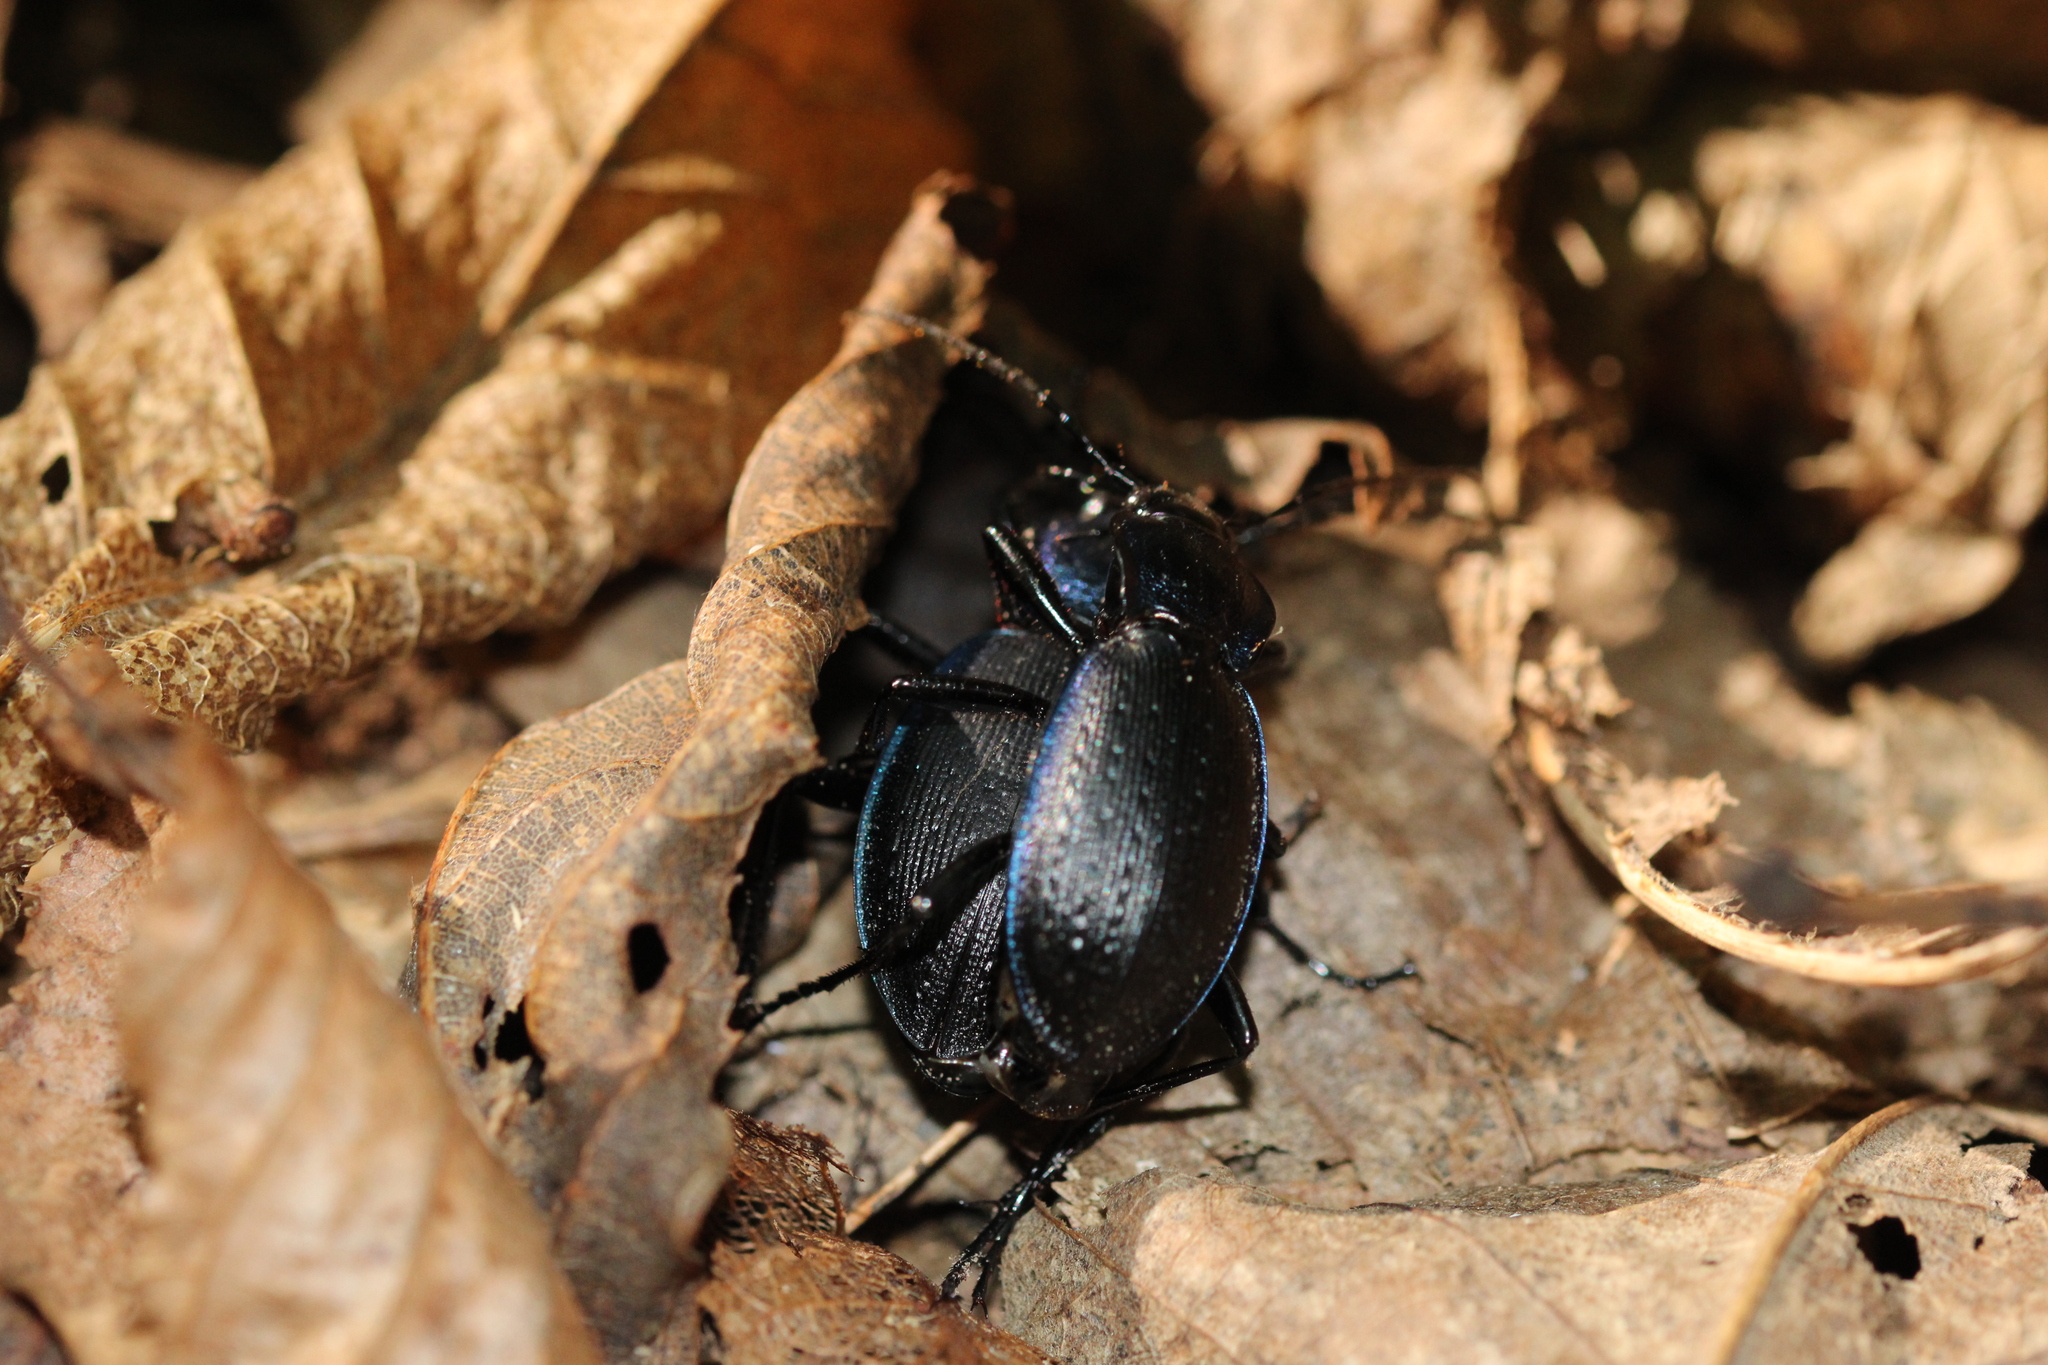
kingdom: Animalia
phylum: Arthropoda
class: Insecta
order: Coleoptera
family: Carabidae
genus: Carabus
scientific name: Carabus problematicus
